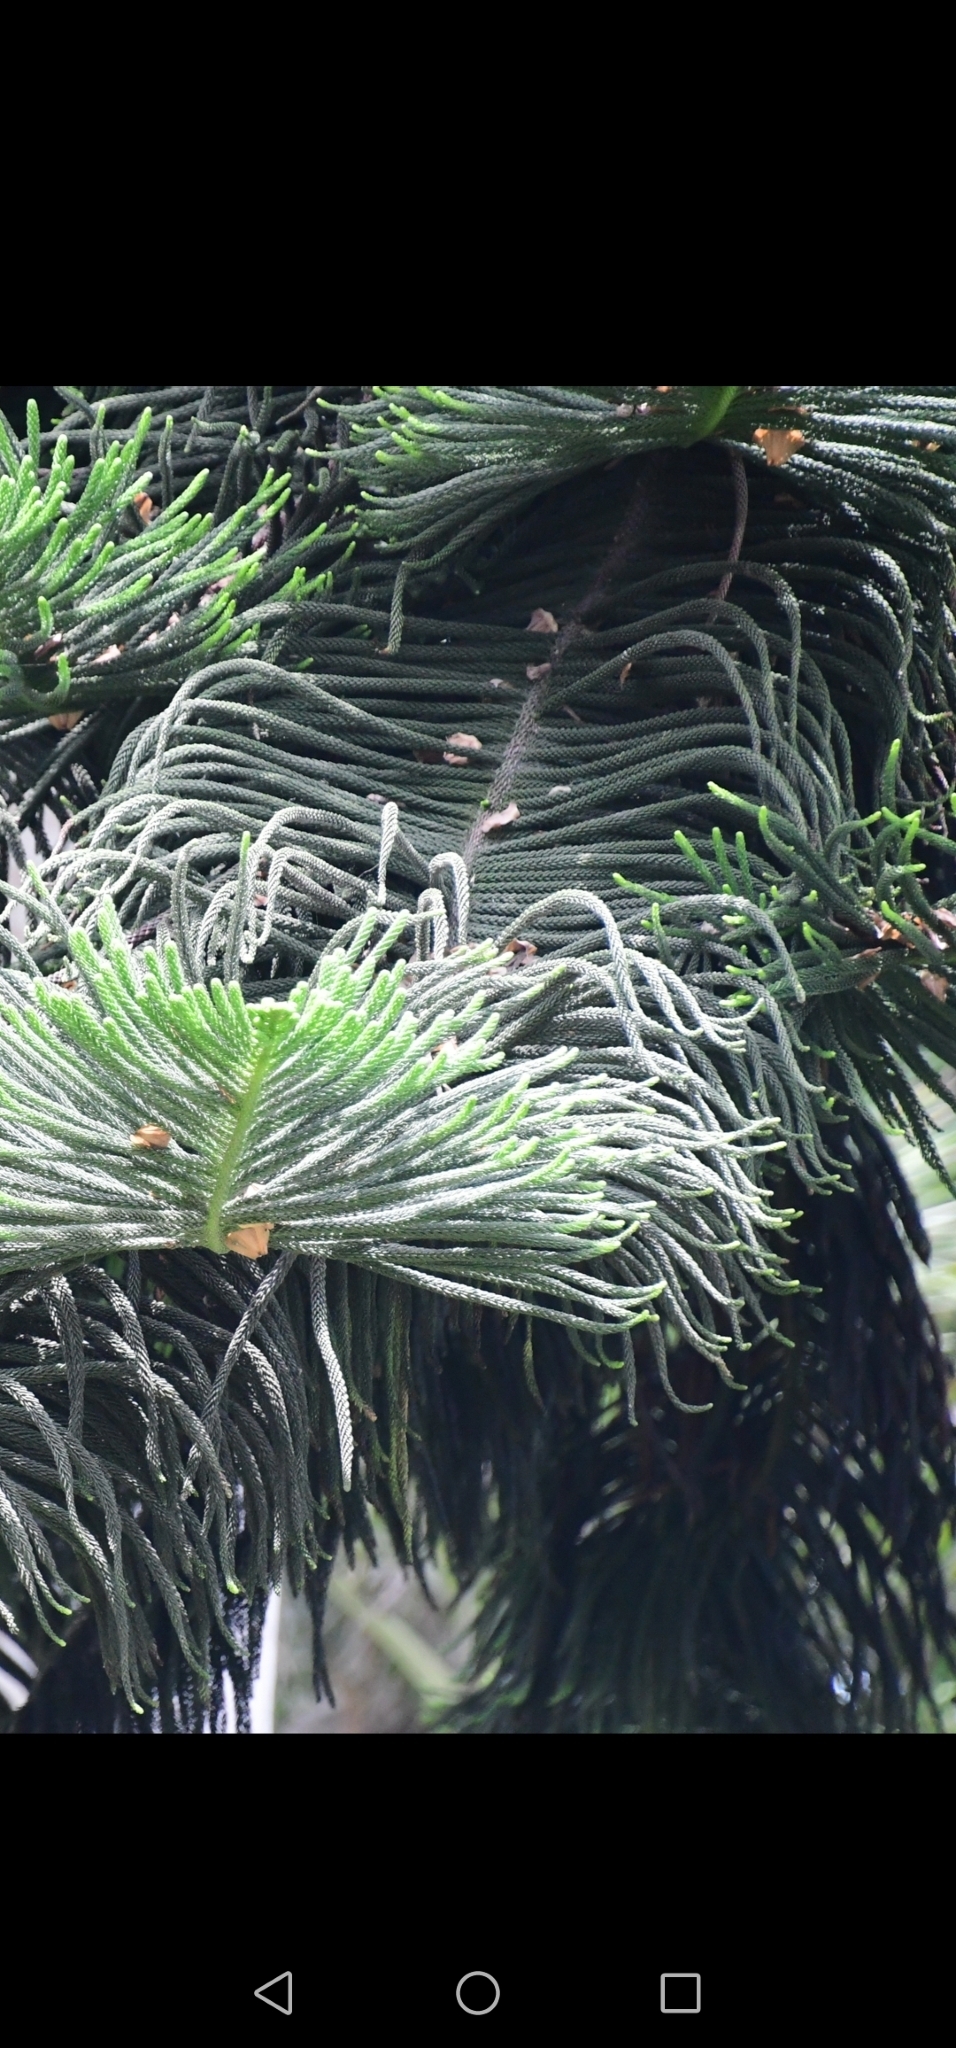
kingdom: Plantae
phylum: Tracheophyta
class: Pinopsida
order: Pinales
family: Araucariaceae
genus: Araucaria
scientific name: Araucaria columnaris
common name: Coral reef araucaria
